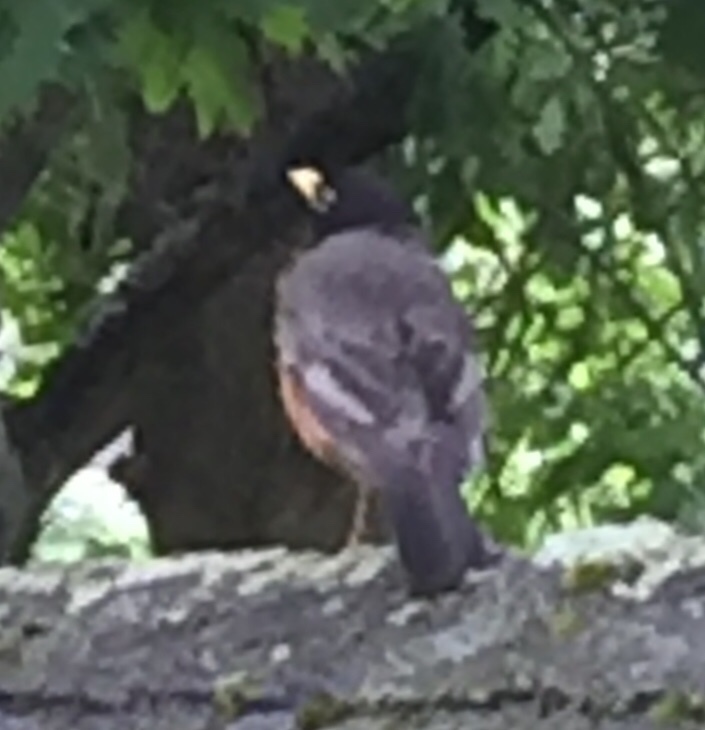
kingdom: Animalia
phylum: Chordata
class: Aves
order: Passeriformes
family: Turdidae
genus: Turdus
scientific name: Turdus migratorius
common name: American robin
